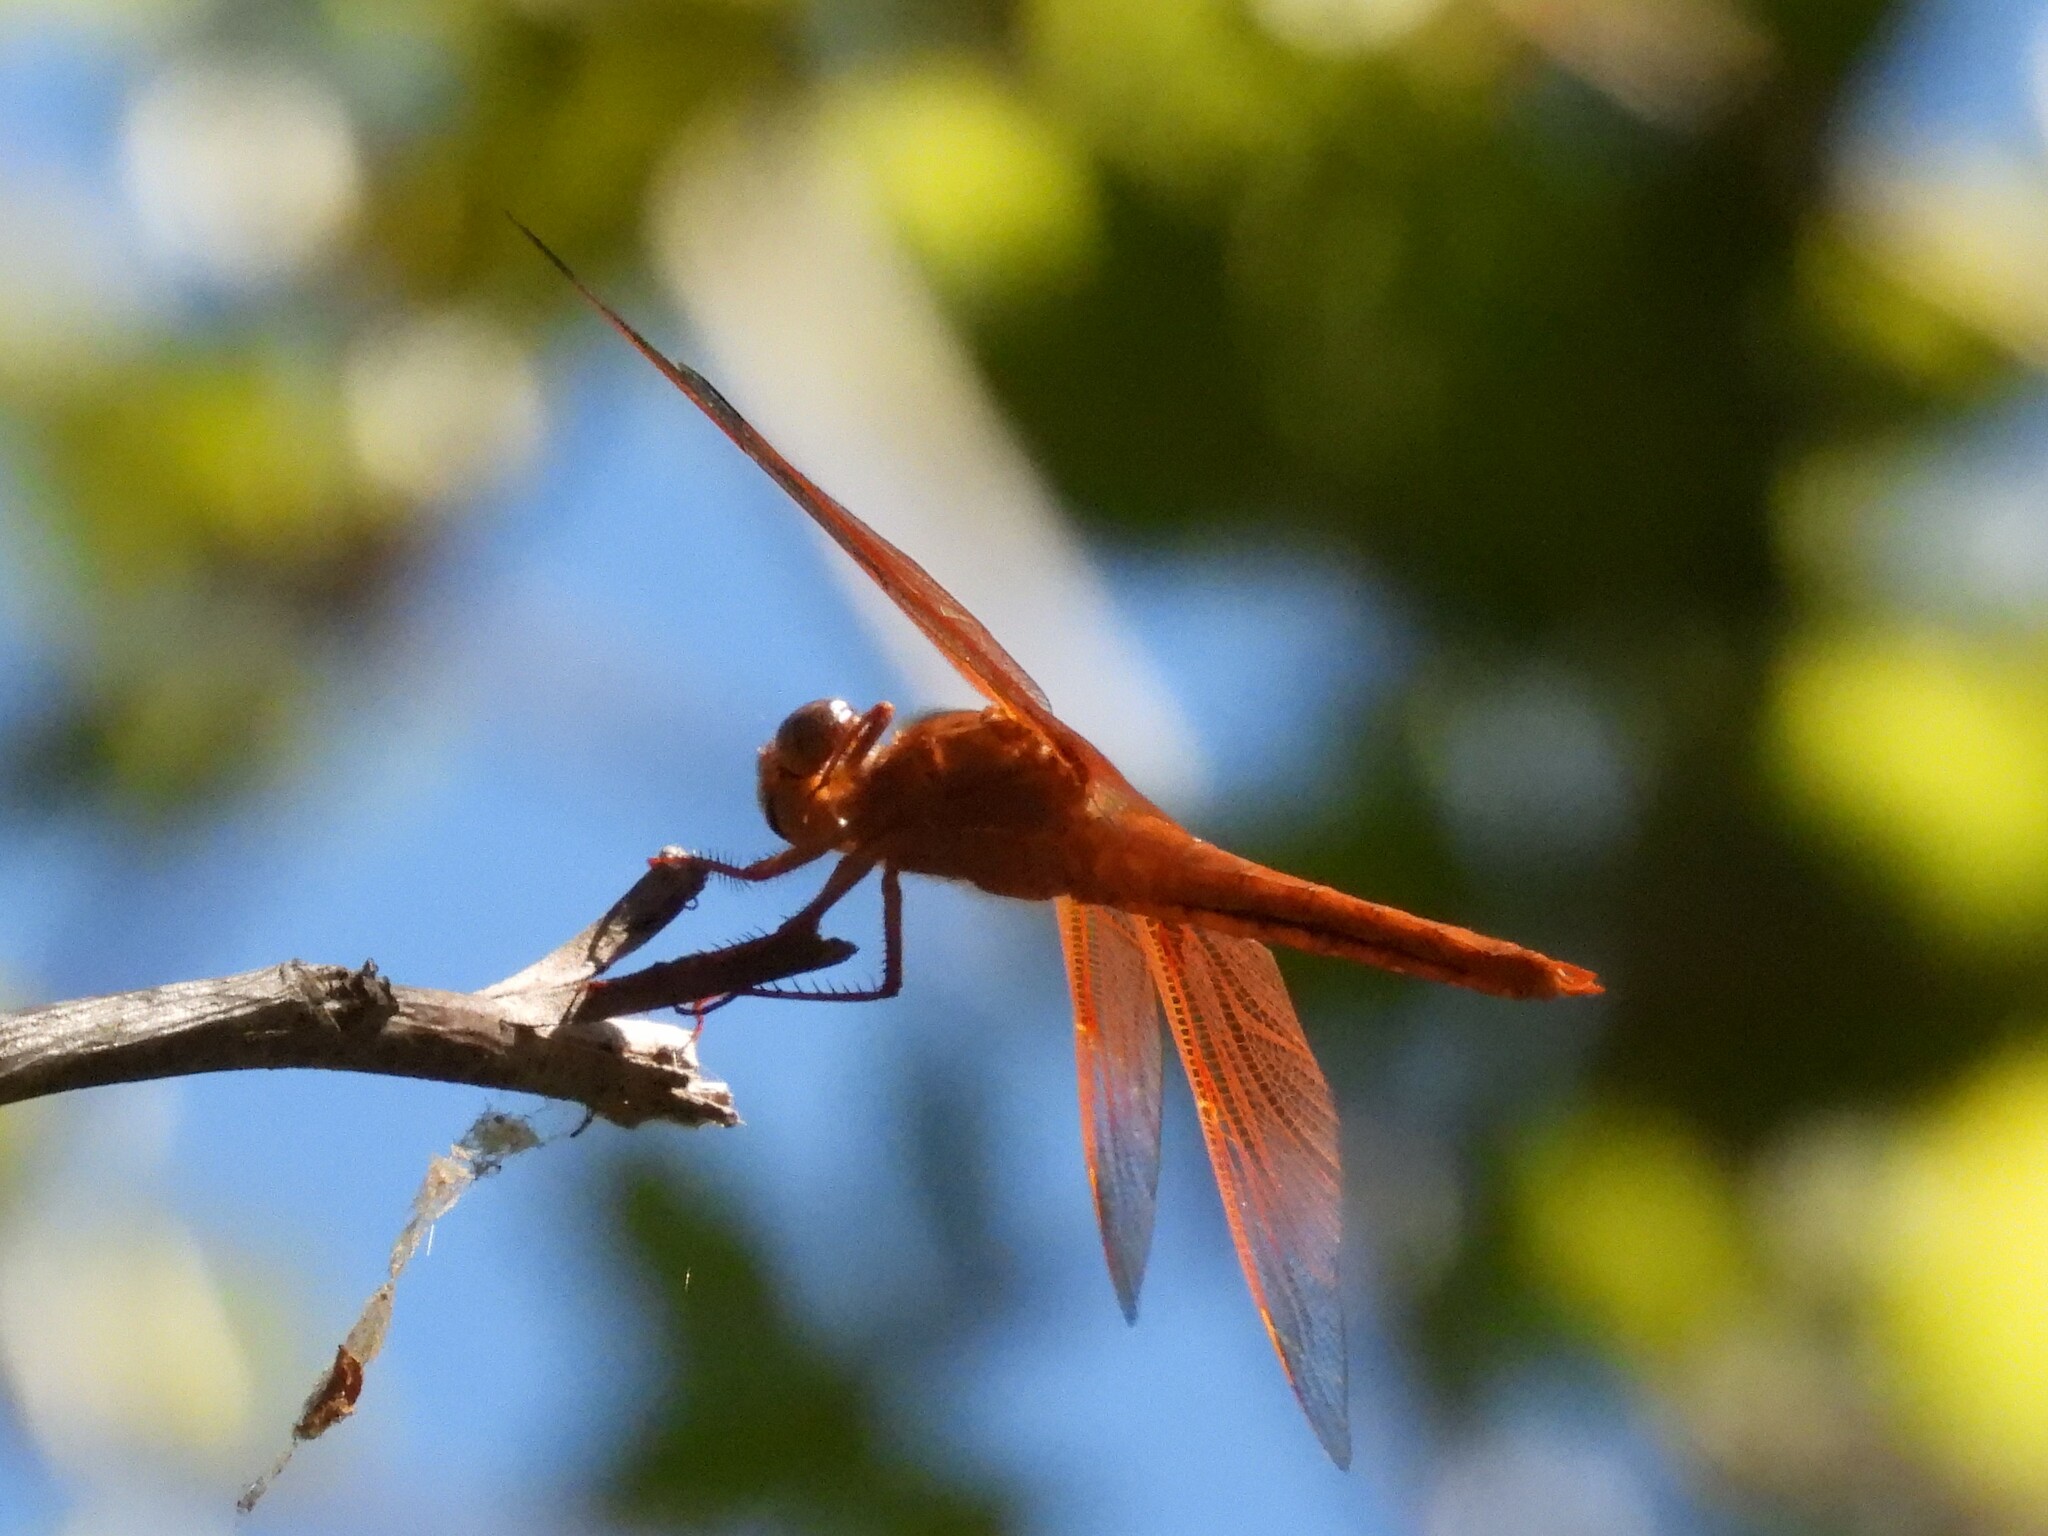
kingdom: Animalia
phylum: Arthropoda
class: Insecta
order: Odonata
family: Libellulidae
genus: Libellula
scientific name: Libellula saturata
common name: Flame skimmer
